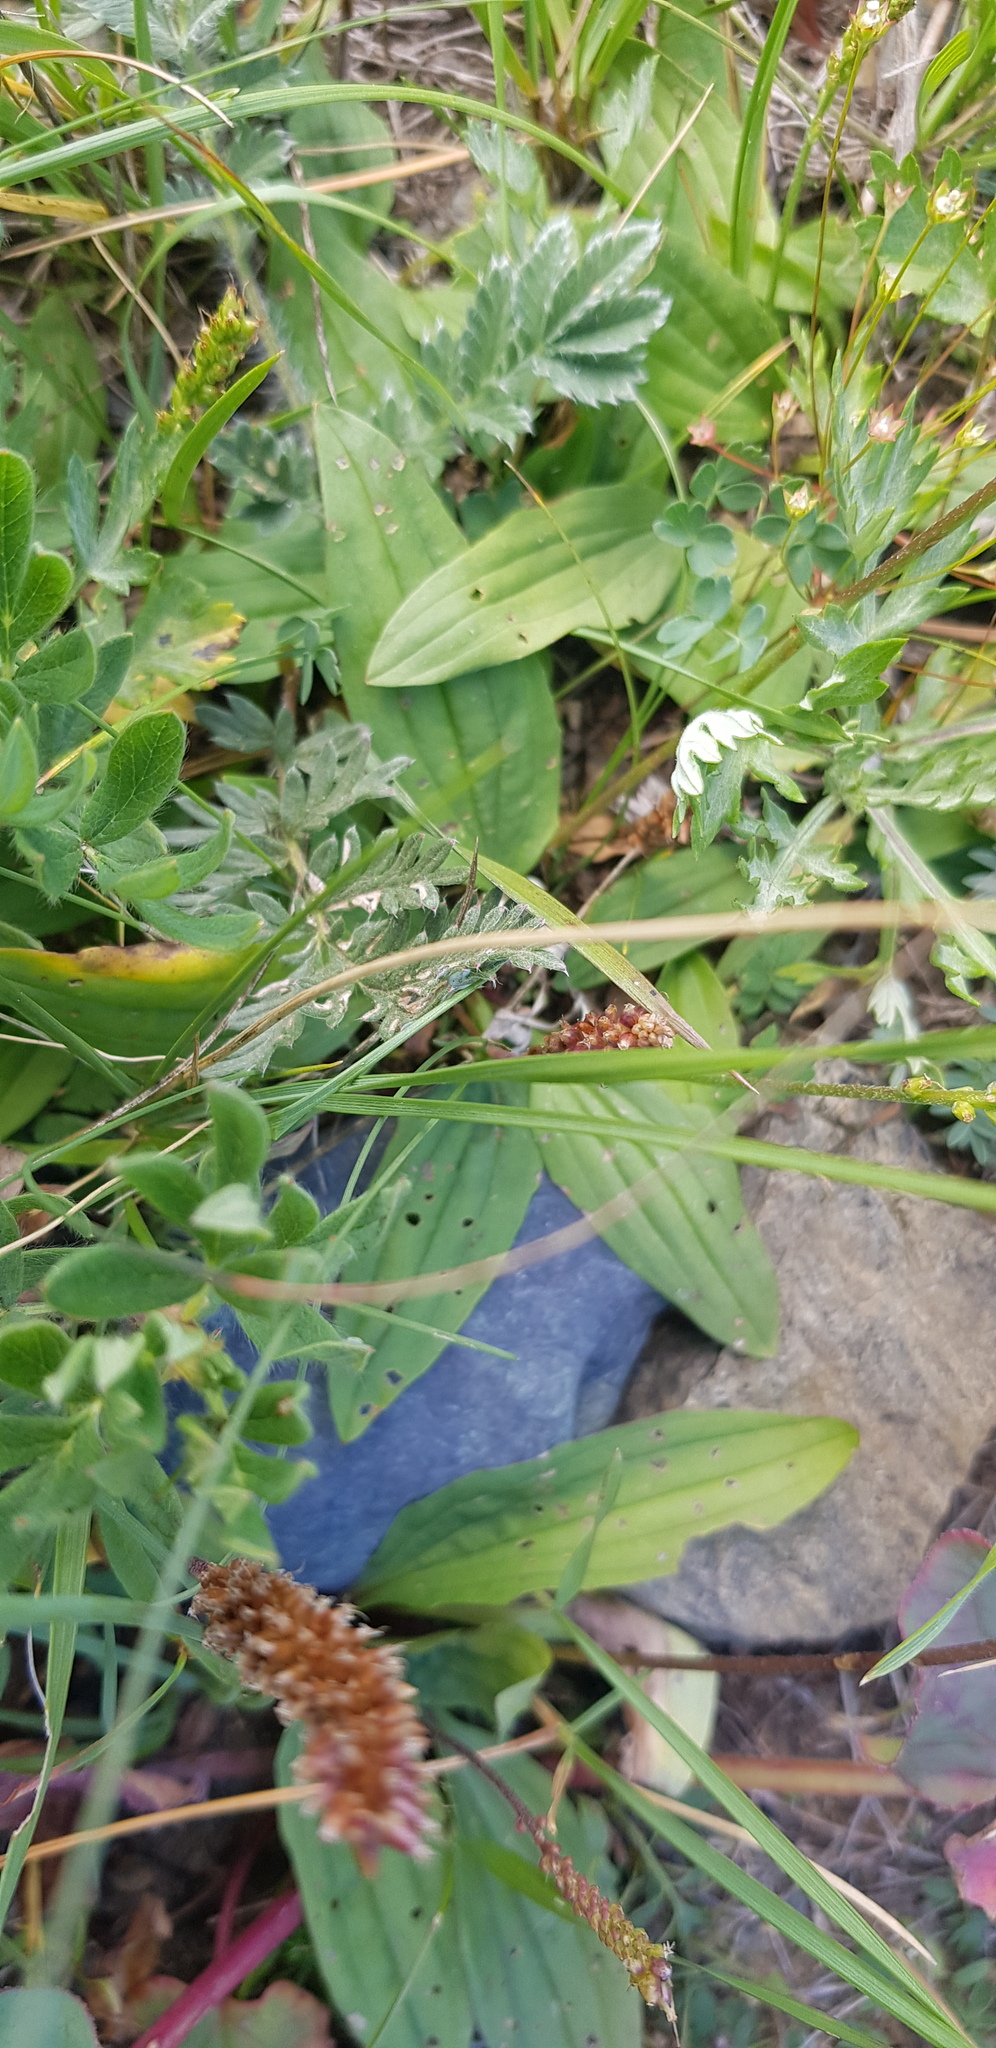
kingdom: Plantae
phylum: Tracheophyta
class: Magnoliopsida
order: Lamiales
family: Plantaginaceae
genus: Plantago
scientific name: Plantago depressa
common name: Depressed plantain
